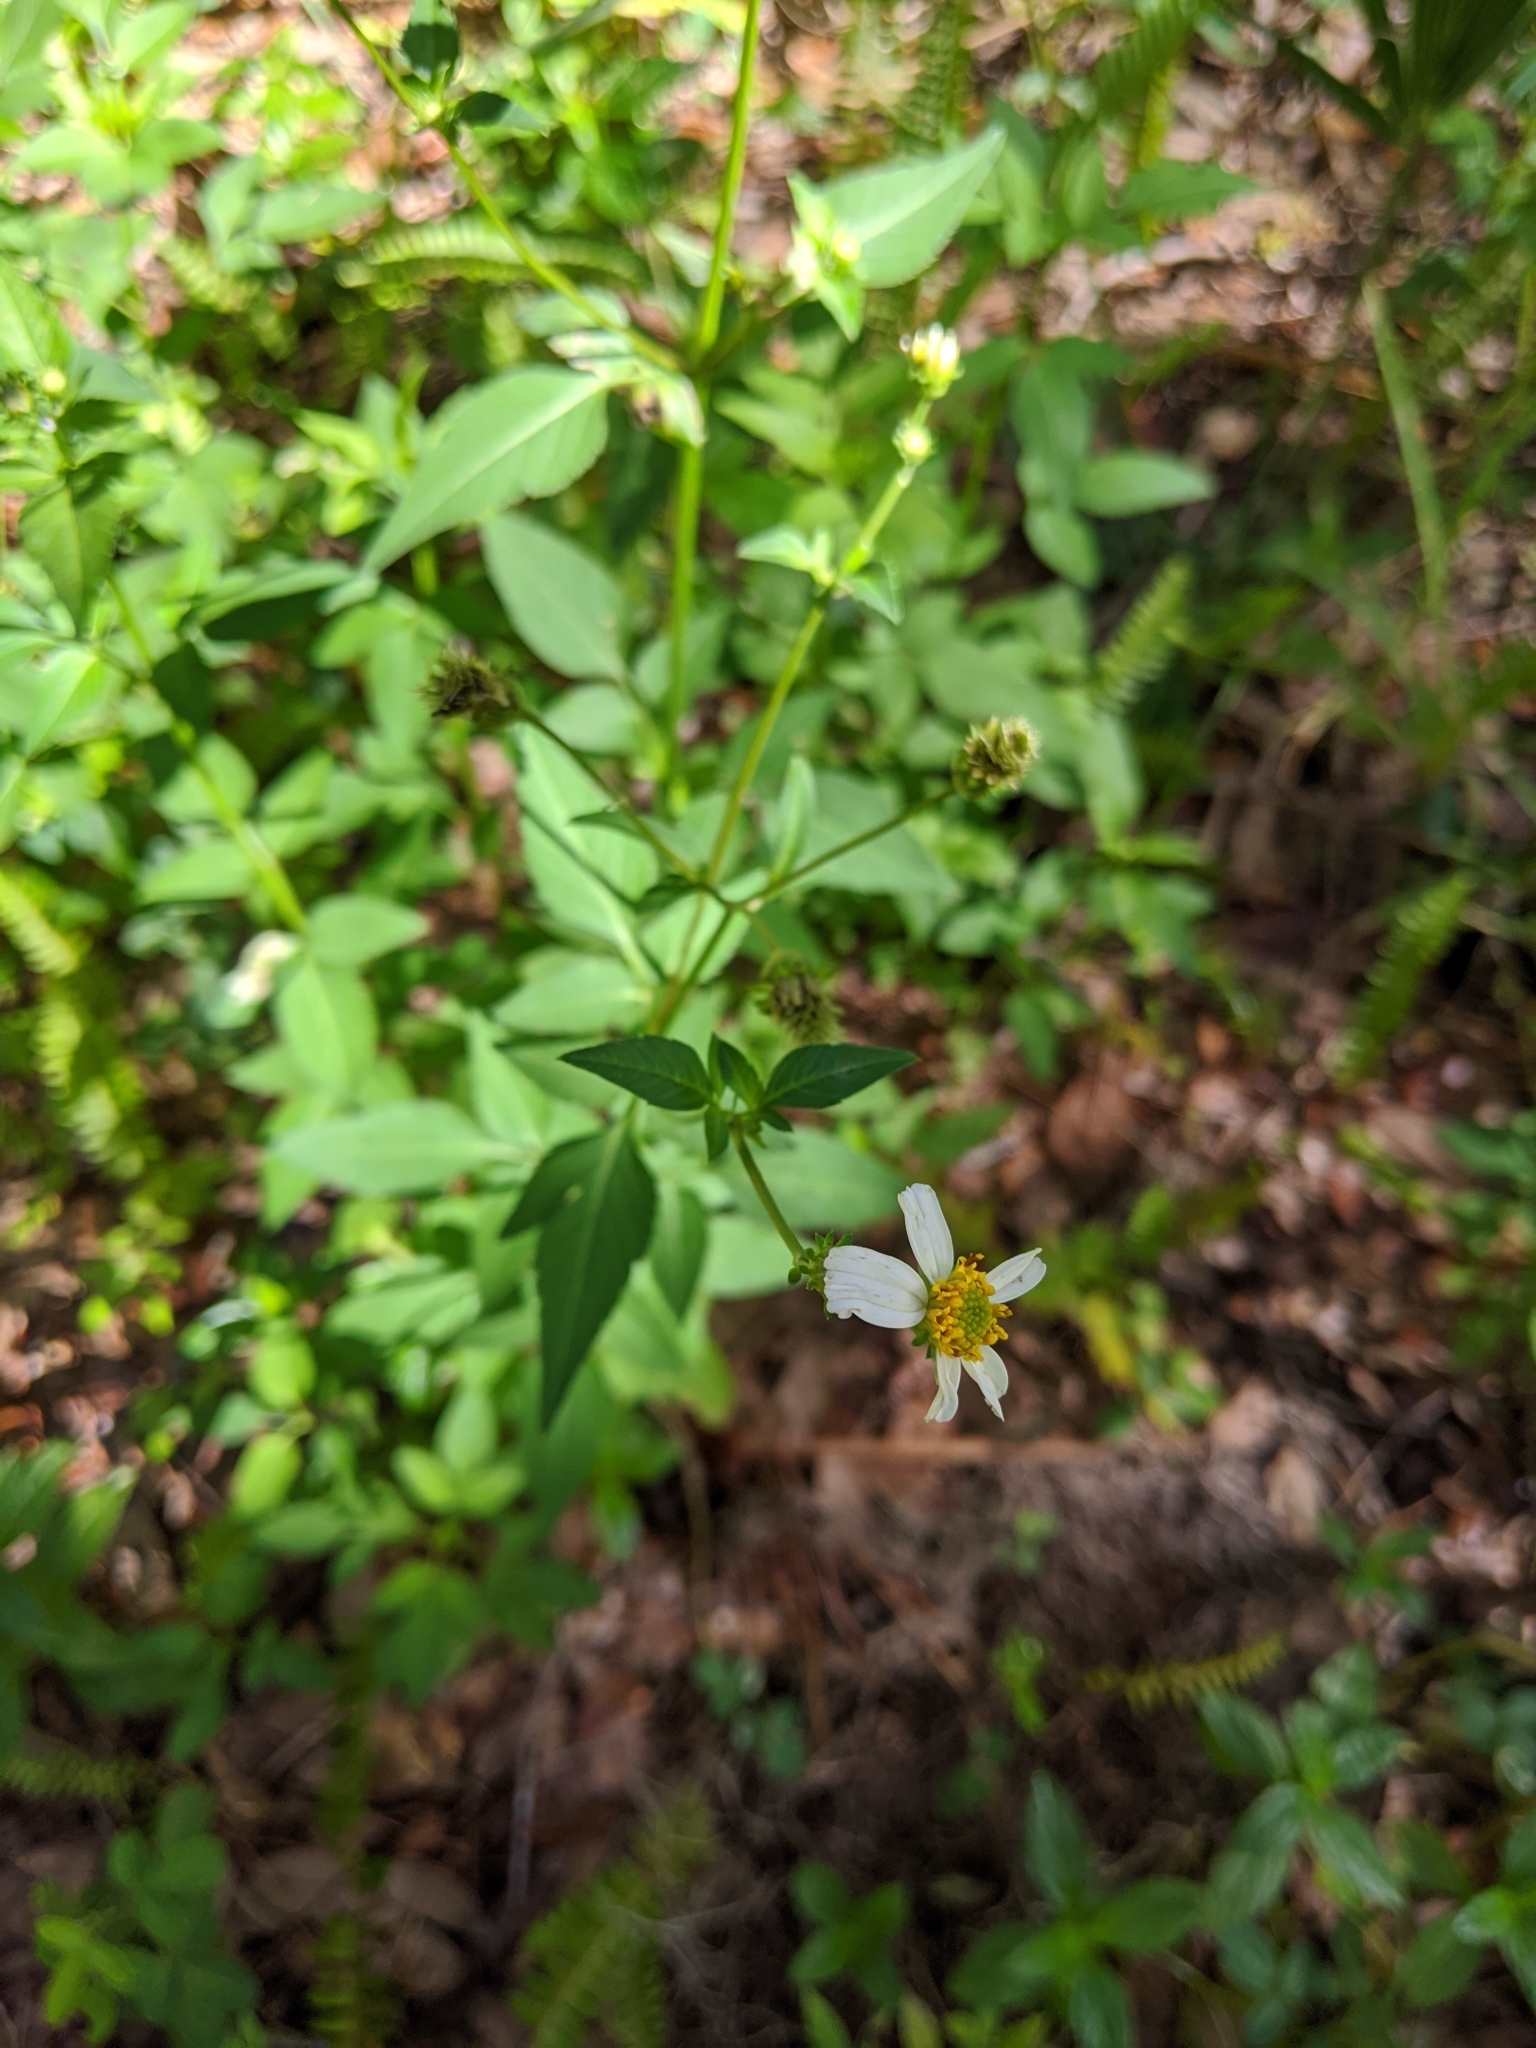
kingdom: Plantae
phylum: Tracheophyta
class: Magnoliopsida
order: Asterales
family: Asteraceae
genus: Bidens
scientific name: Bidens alba
